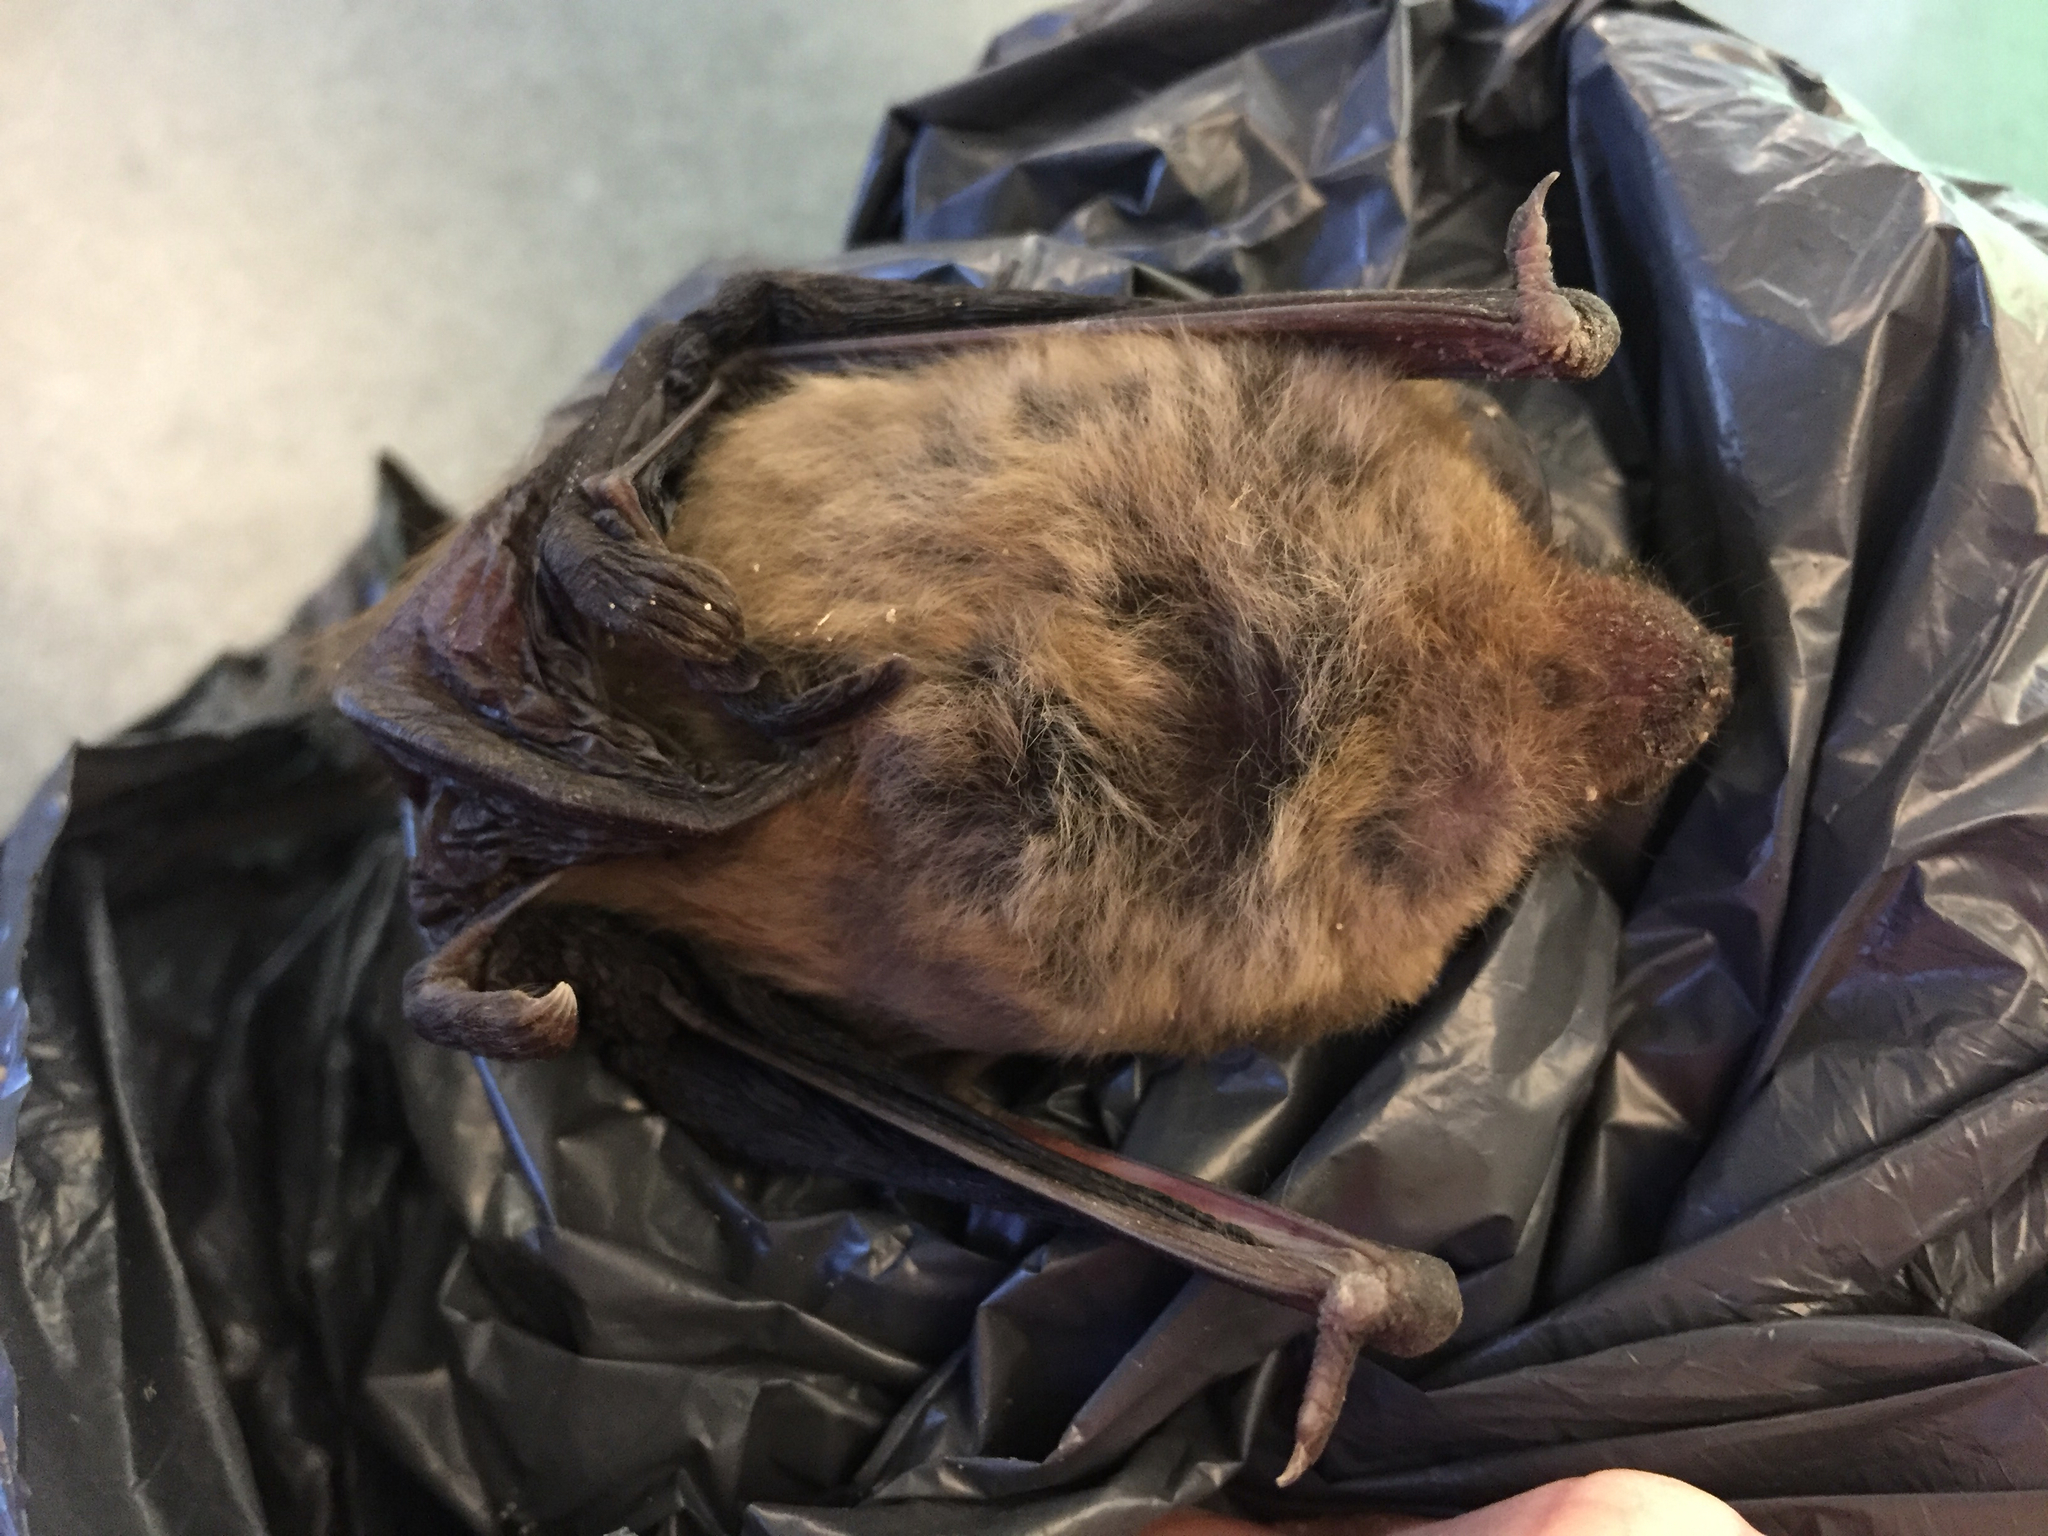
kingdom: Animalia
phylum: Chordata
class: Mammalia
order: Chiroptera
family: Vespertilionidae
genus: Eptesicus
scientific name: Eptesicus fuscus
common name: Big brown bat
